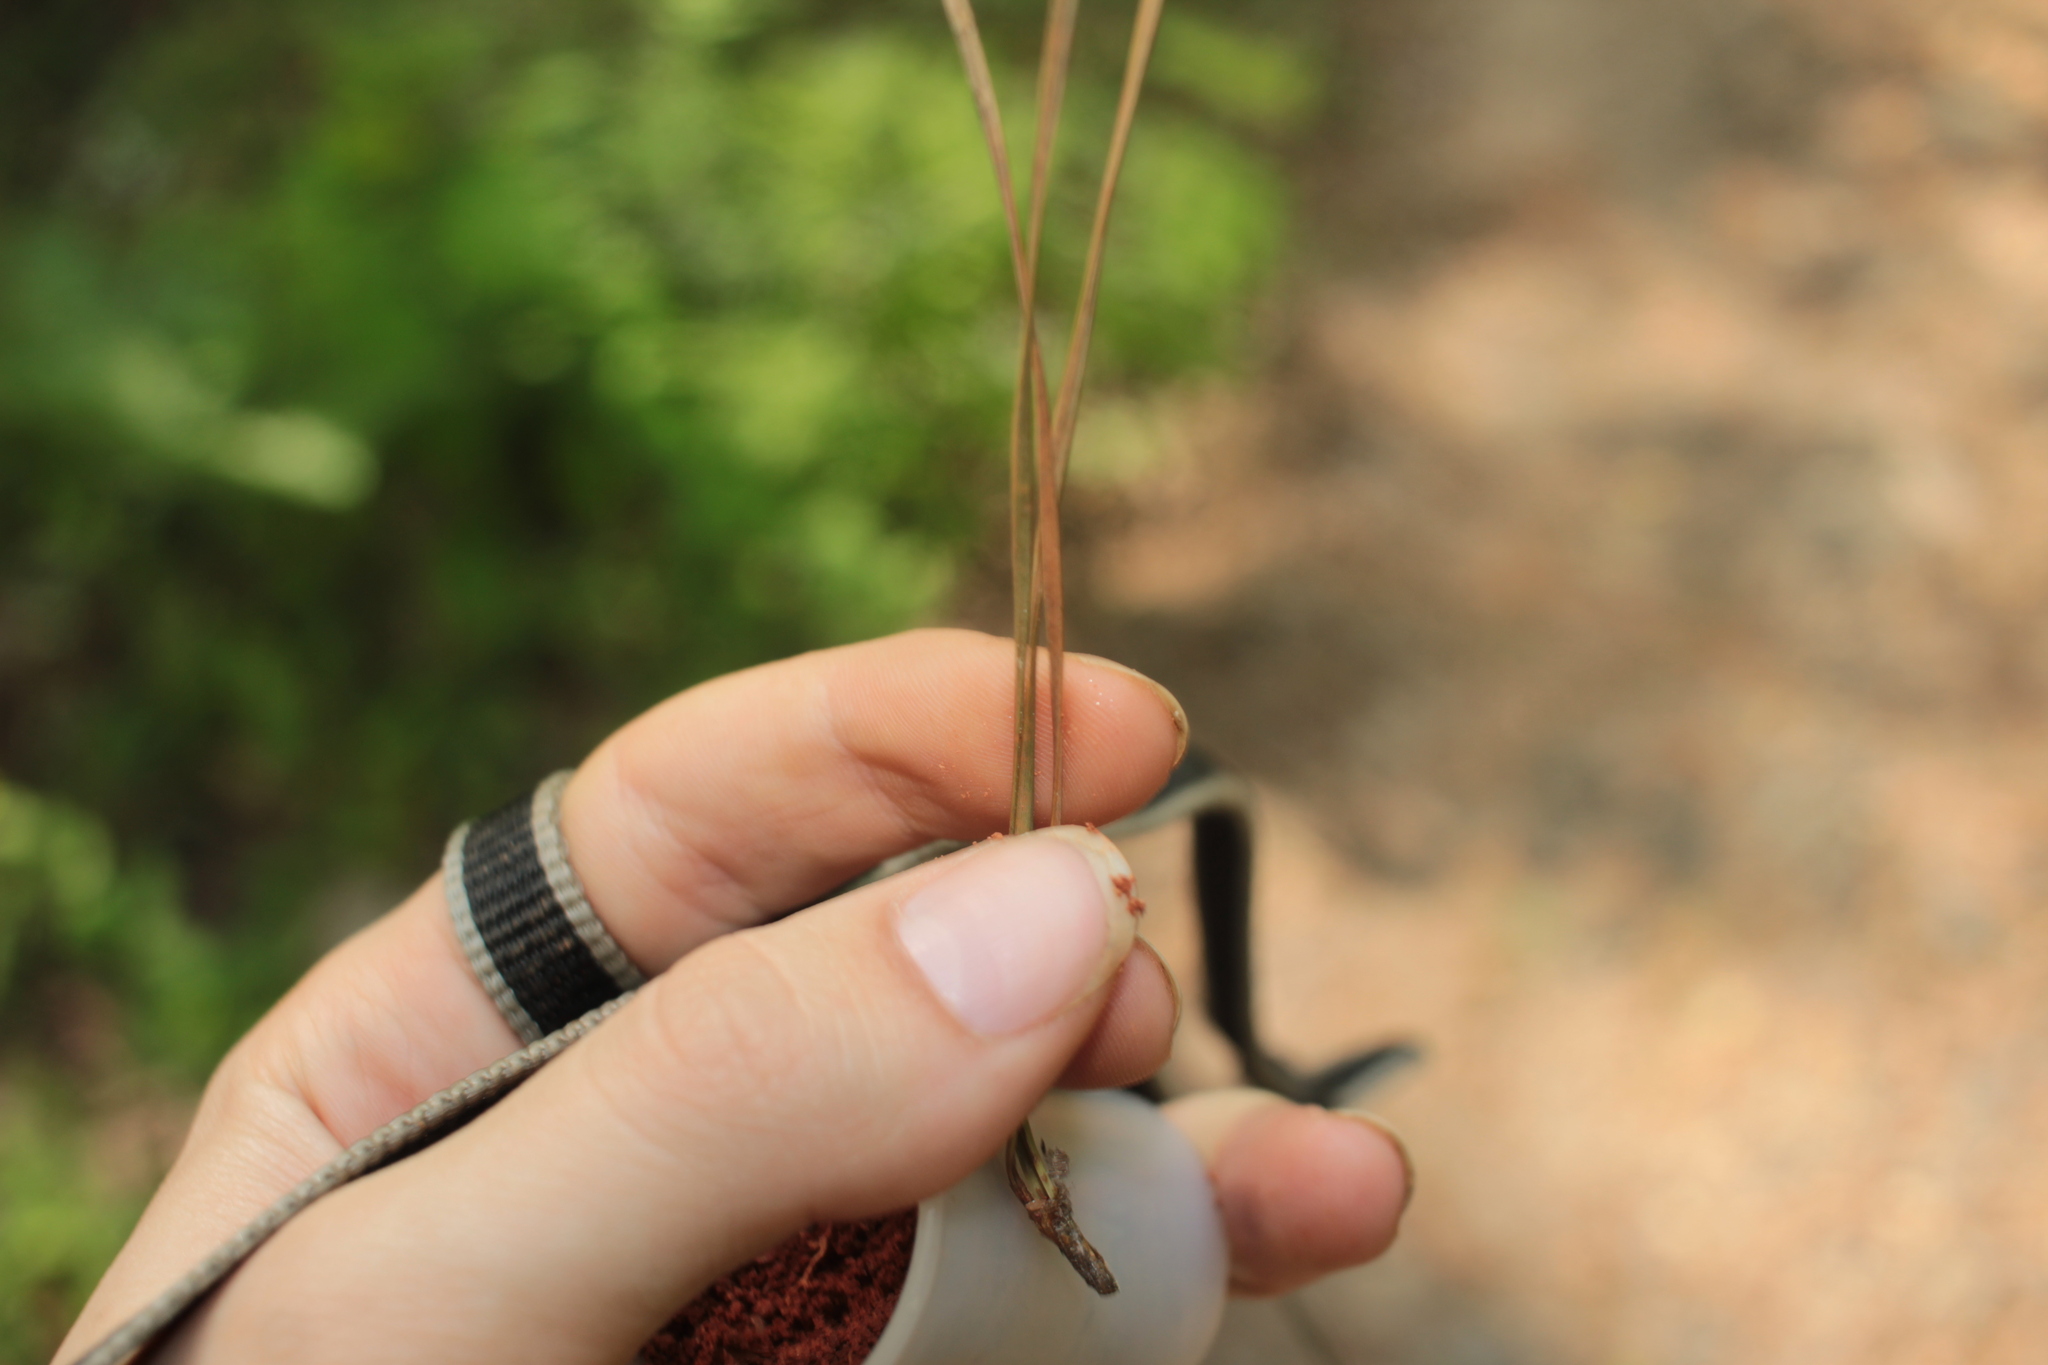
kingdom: Plantae
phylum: Tracheophyta
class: Pinopsida
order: Pinales
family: Pinaceae
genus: Pinus
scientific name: Pinus taeda
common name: Loblolly pine
